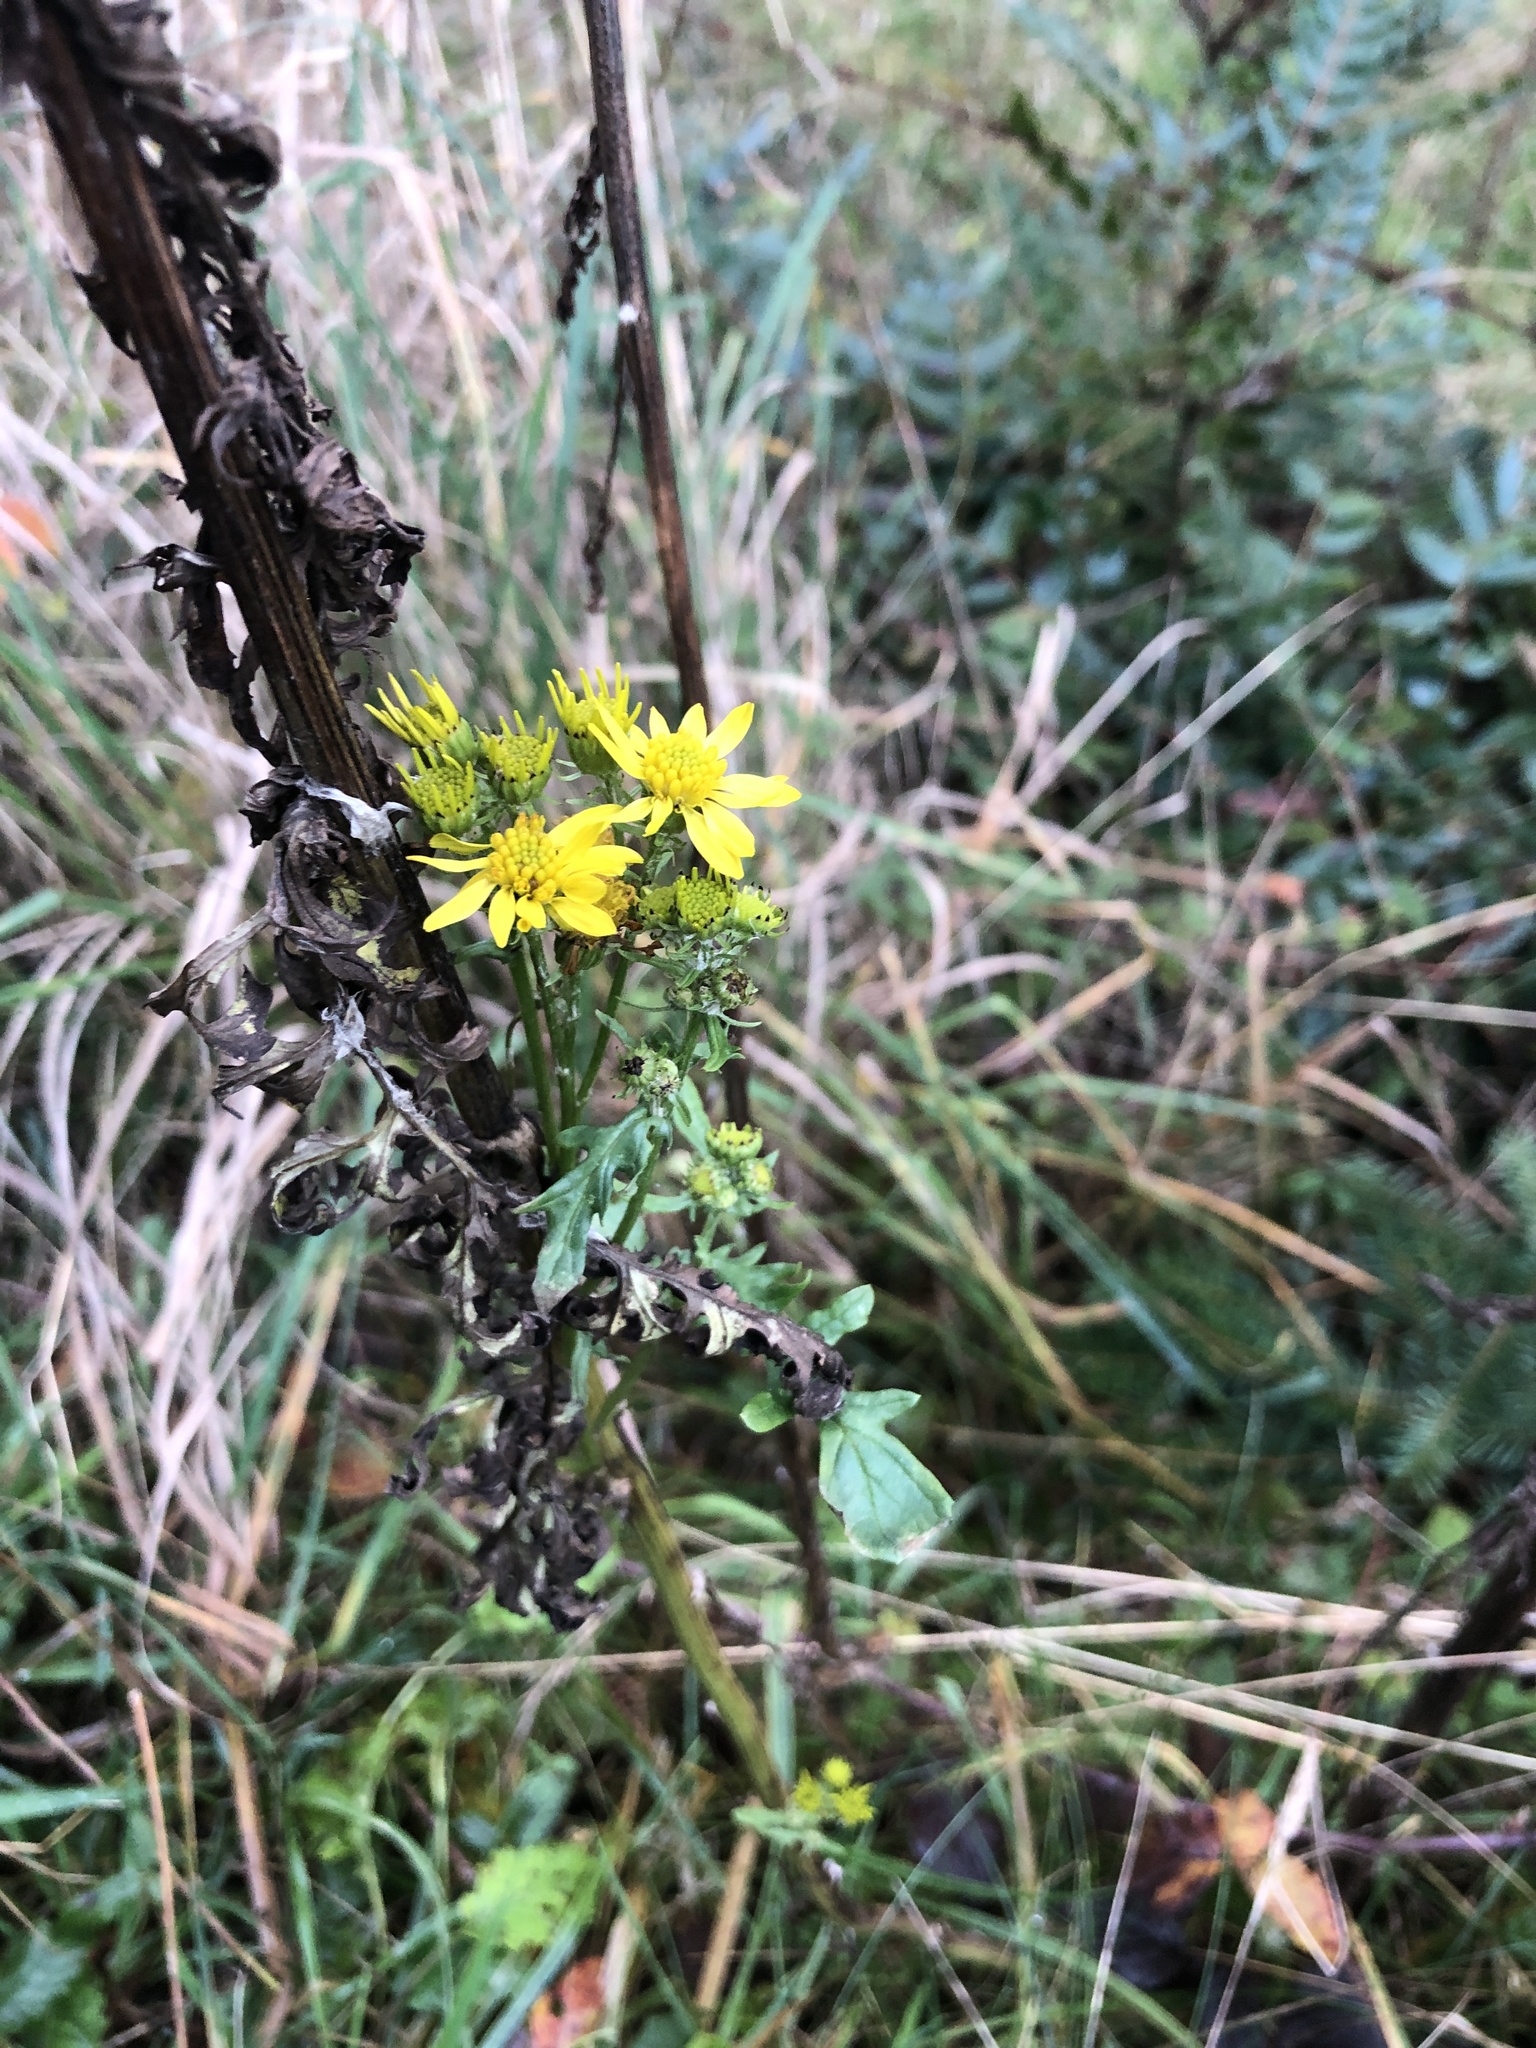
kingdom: Plantae
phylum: Tracheophyta
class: Magnoliopsida
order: Asterales
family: Asteraceae
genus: Jacobaea
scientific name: Jacobaea vulgaris
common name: Stinking willie
